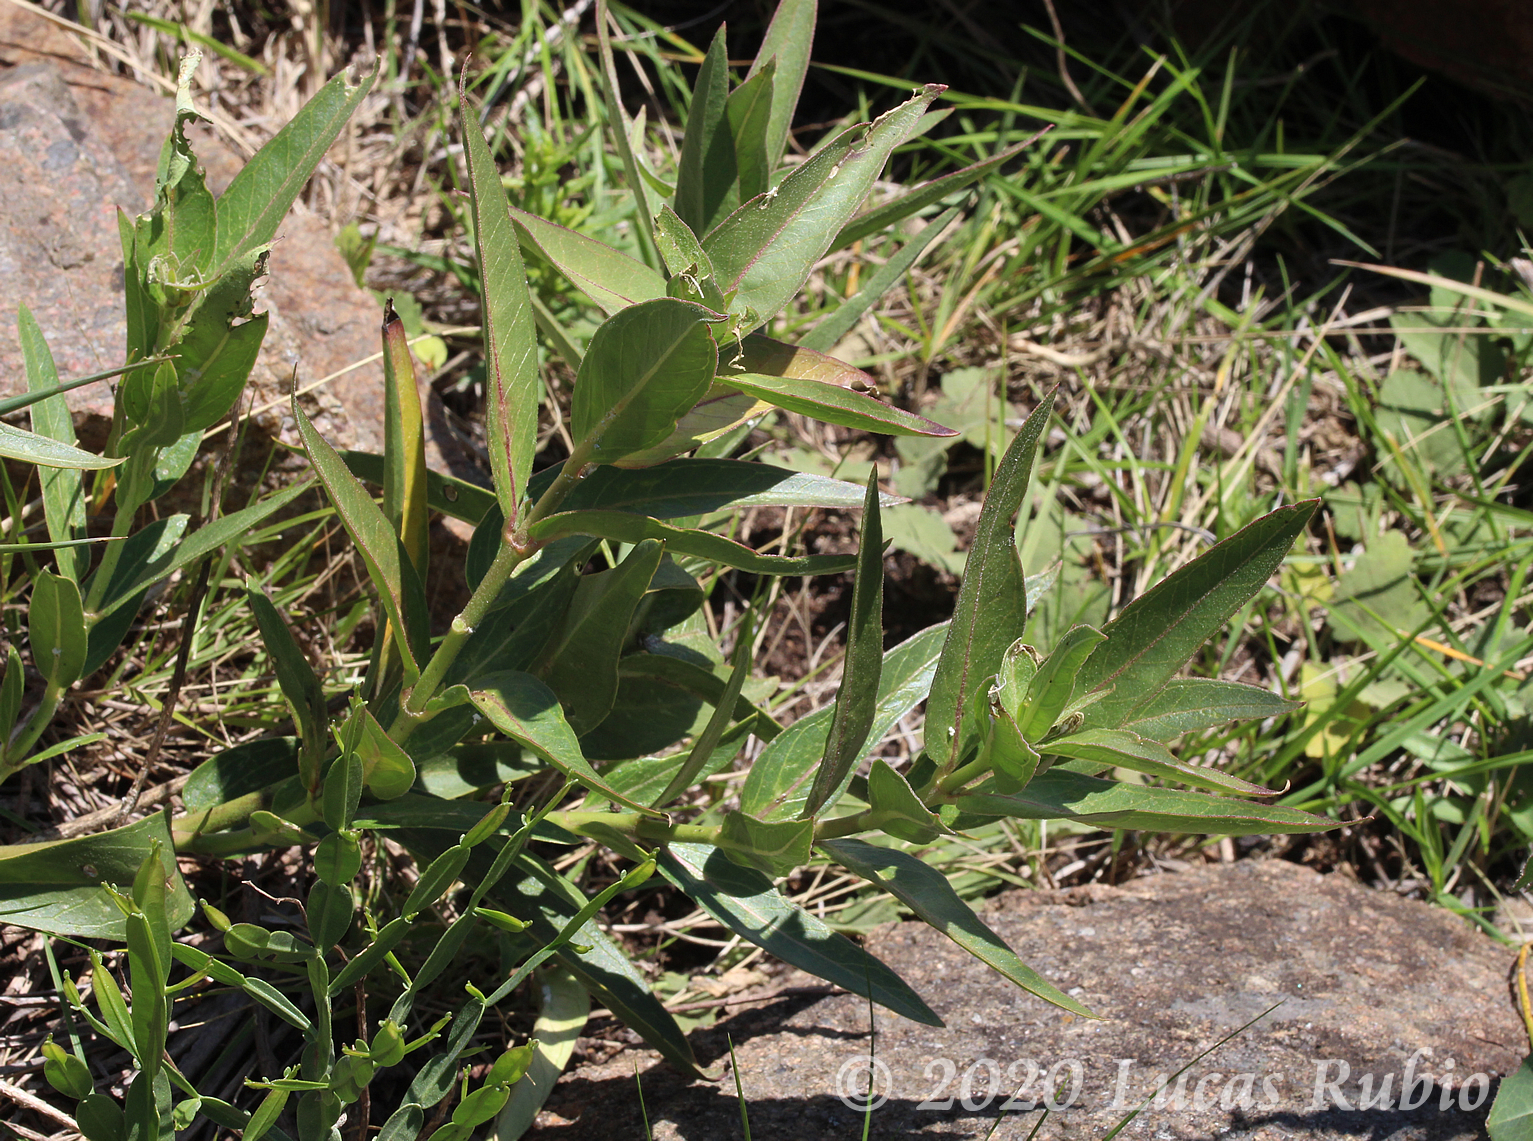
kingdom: Plantae
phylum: Tracheophyta
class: Magnoliopsida
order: Gentianales
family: Apocynaceae
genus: Asclepias
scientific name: Asclepias mellodora
